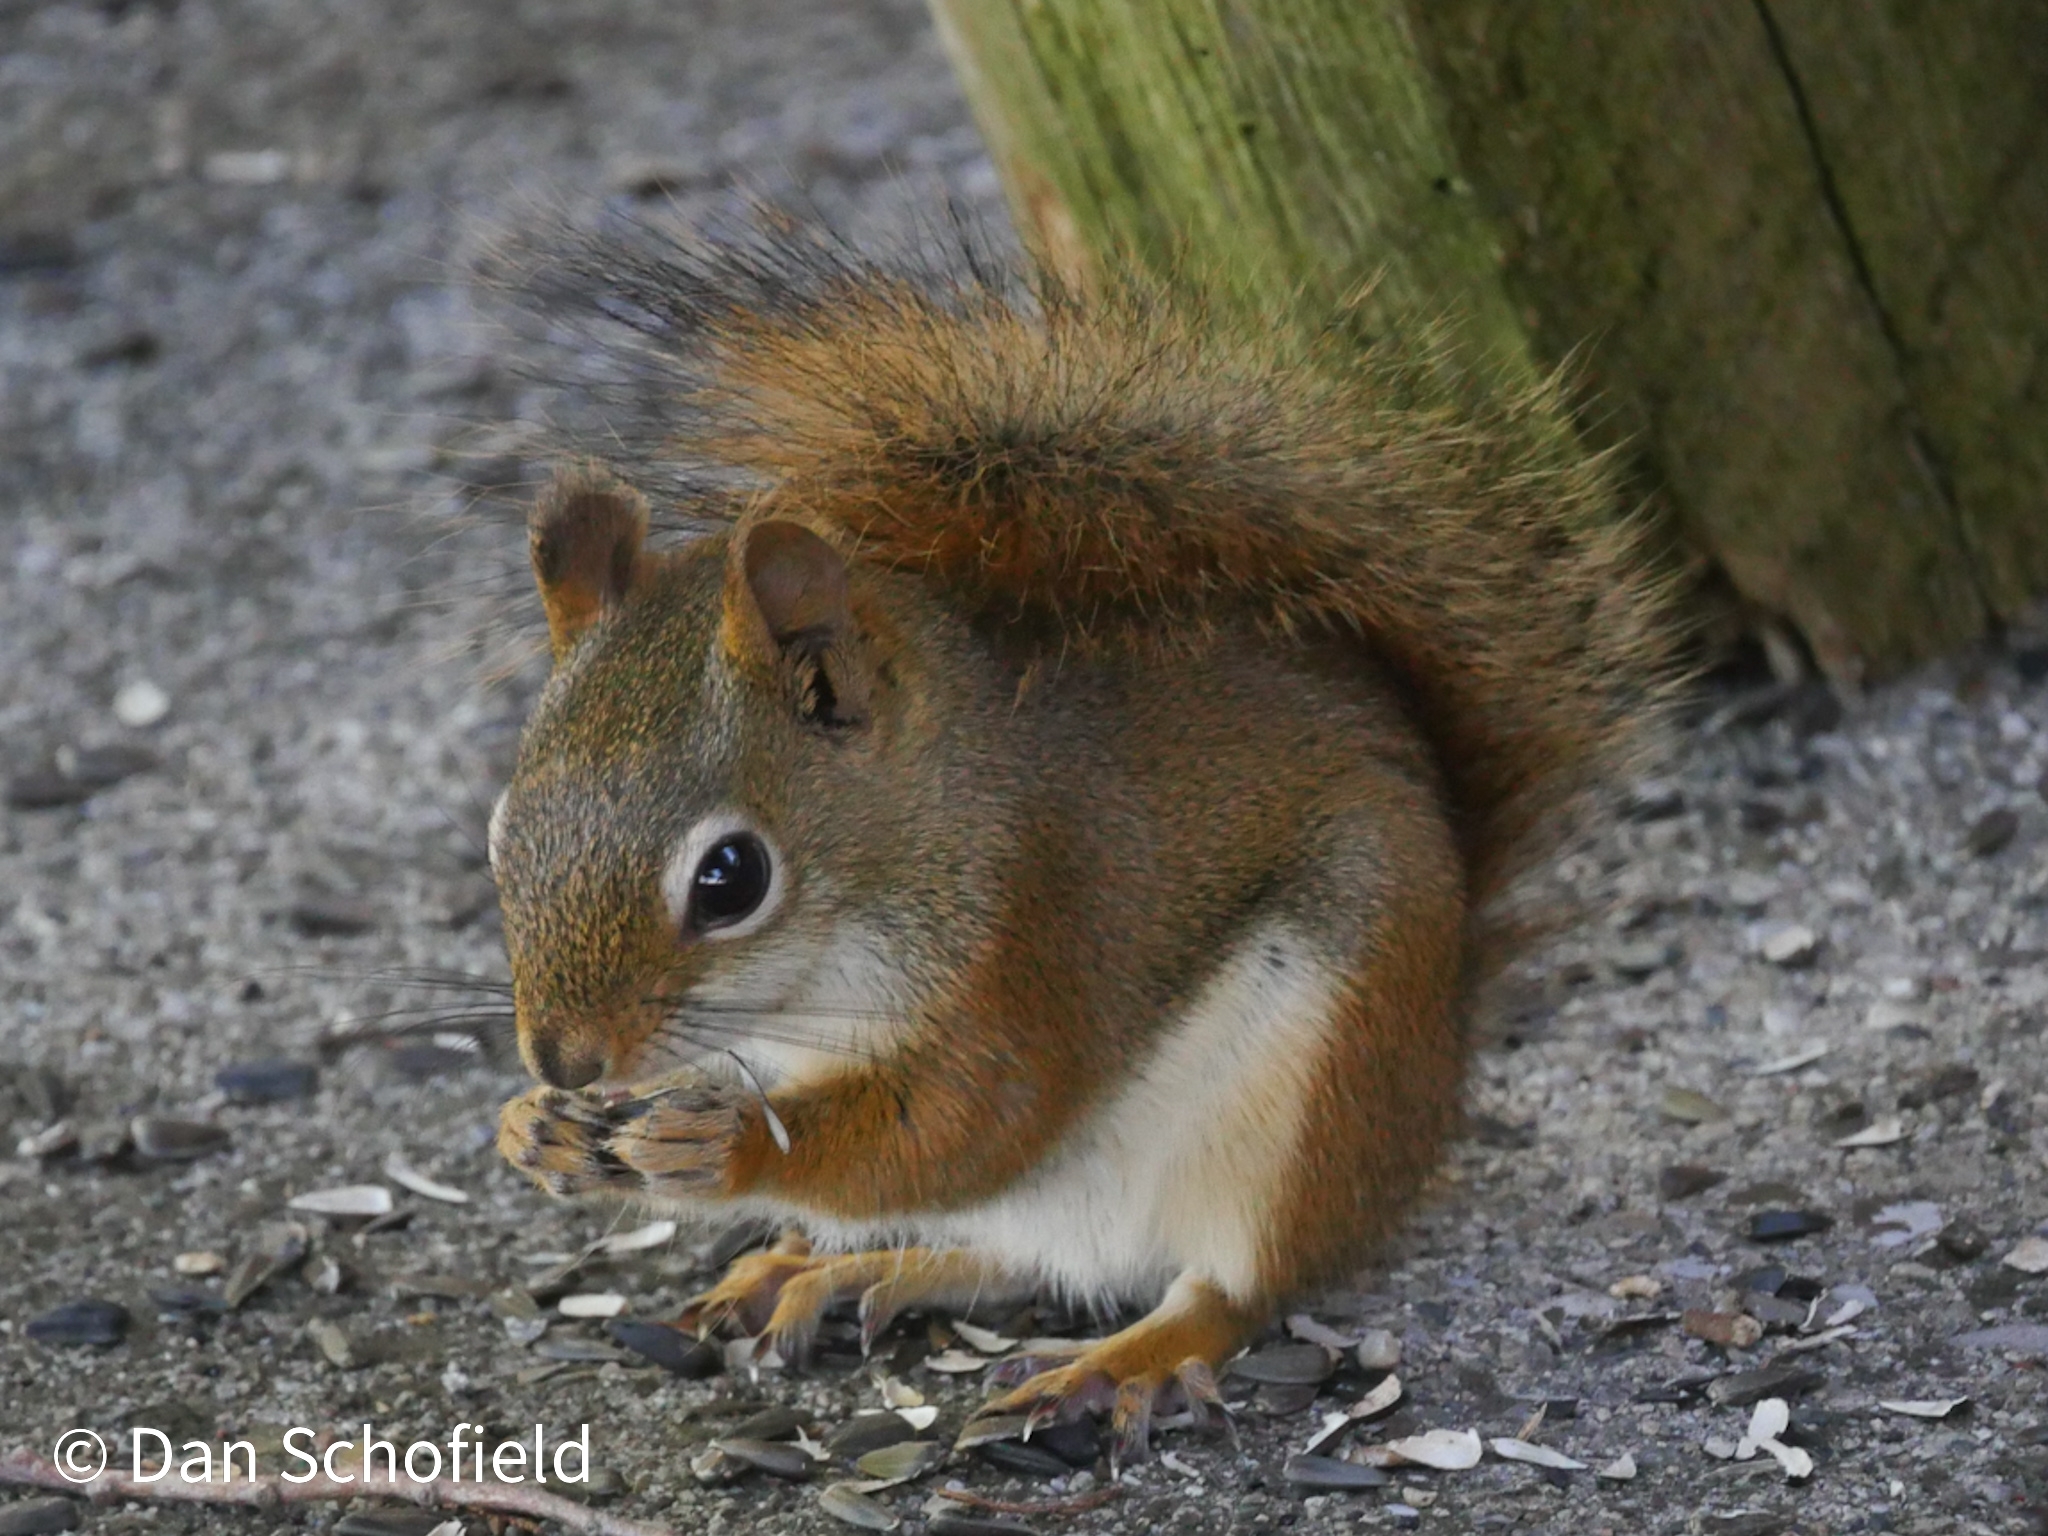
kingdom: Animalia
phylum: Chordata
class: Mammalia
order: Rodentia
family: Sciuridae
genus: Tamiasciurus
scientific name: Tamiasciurus hudsonicus
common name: Red squirrel
